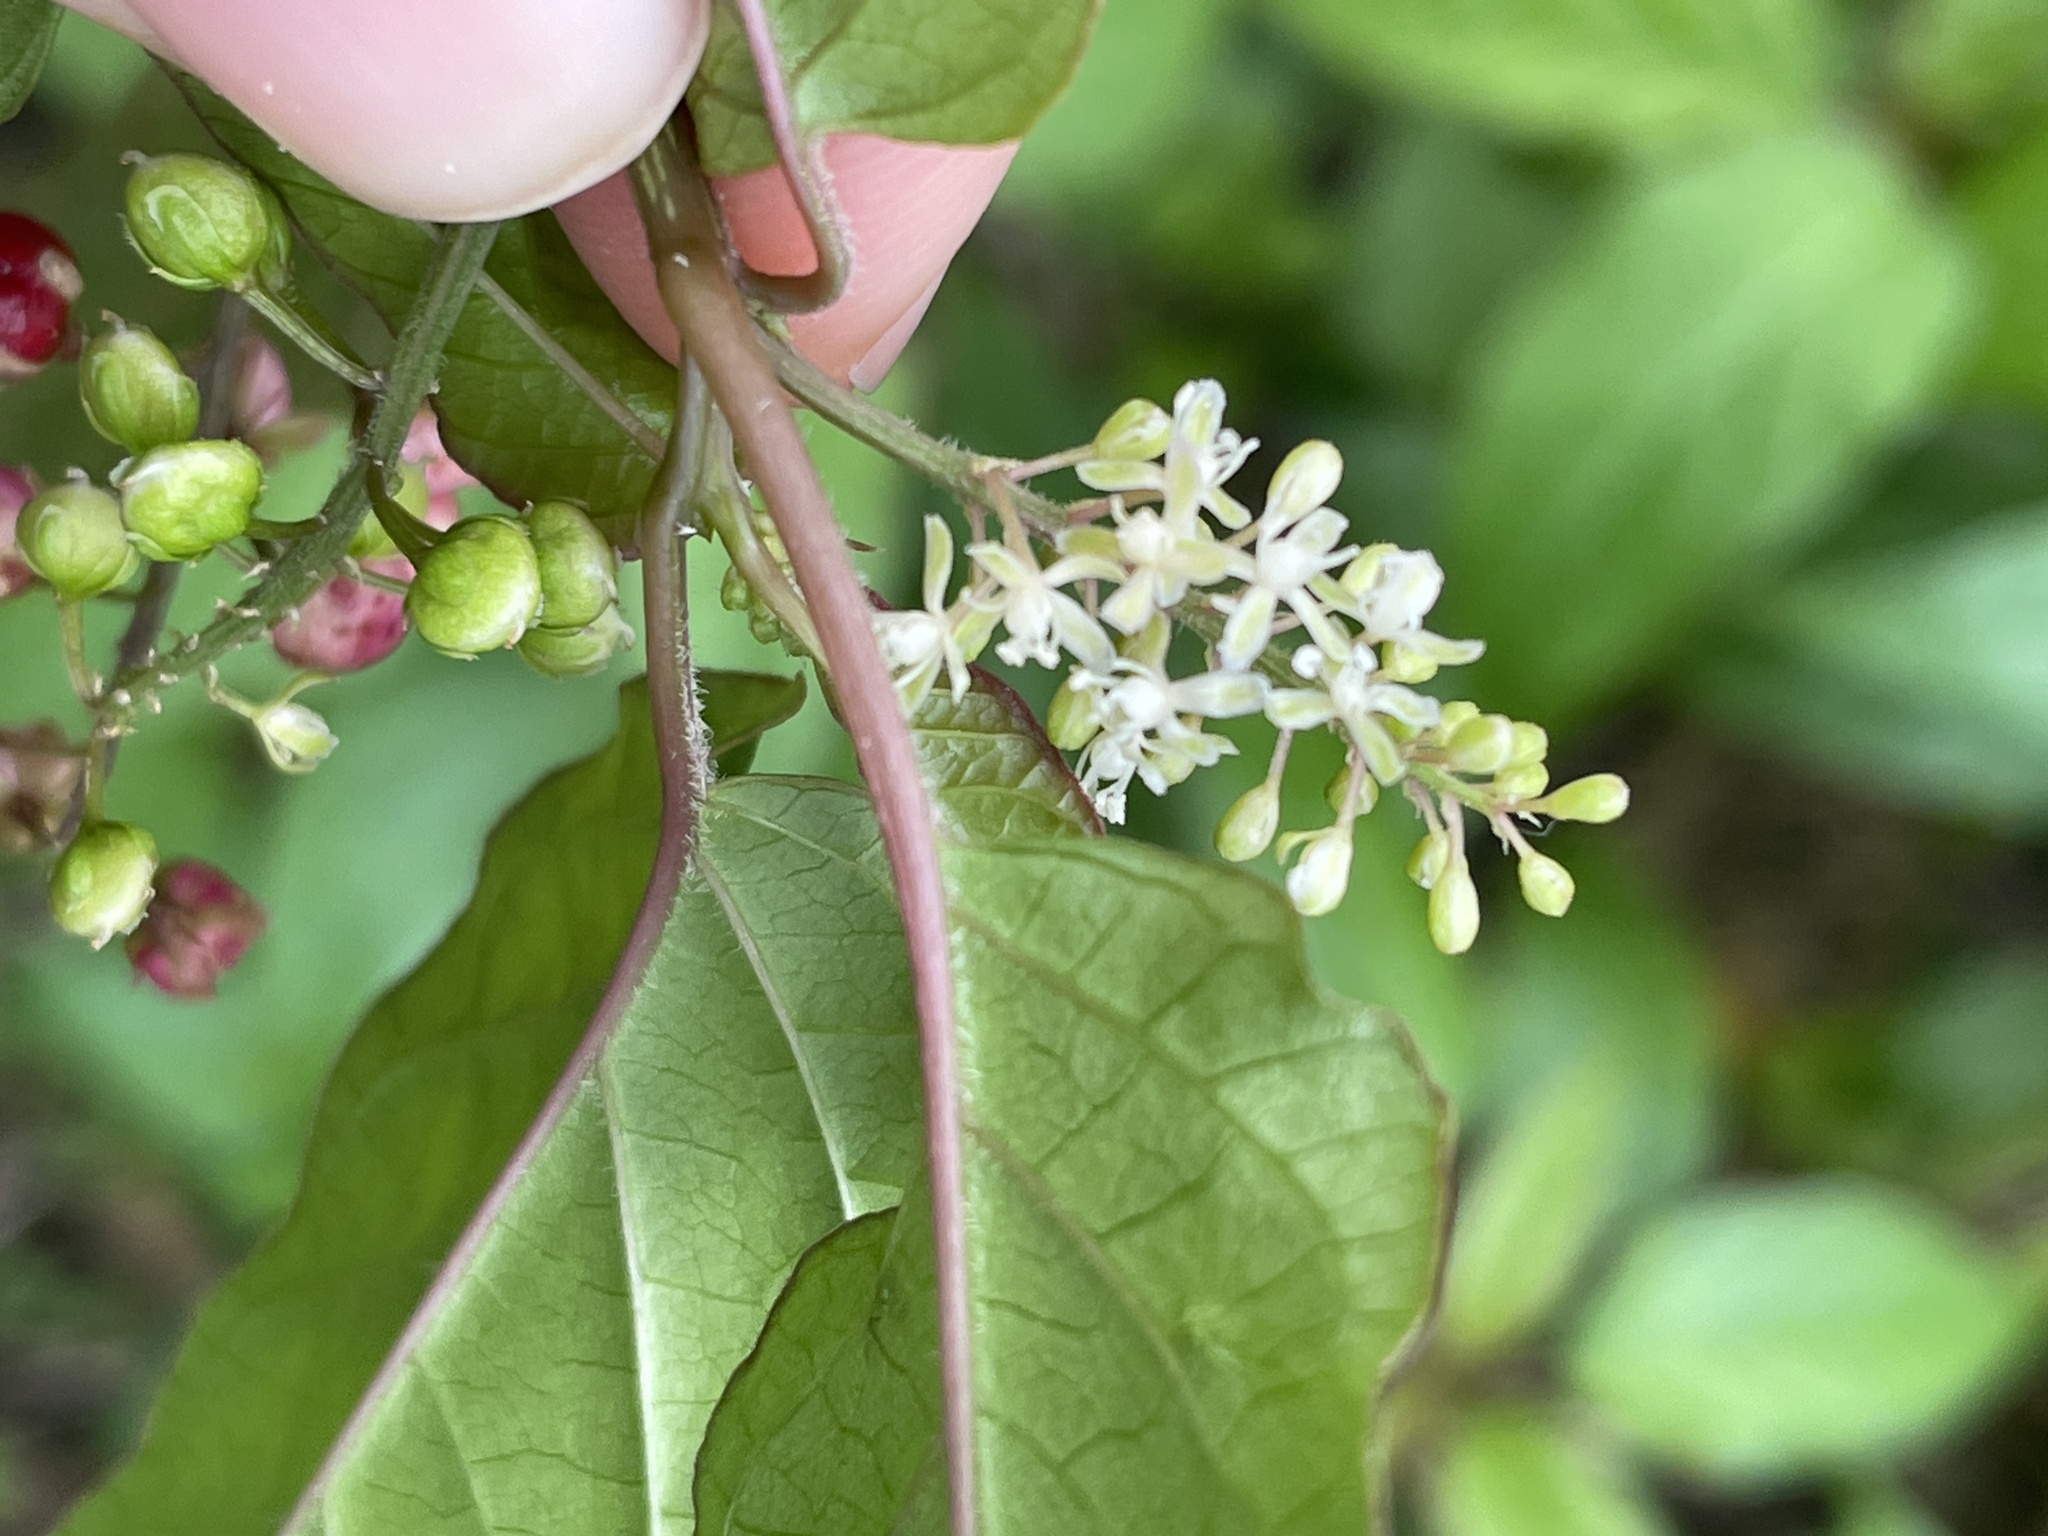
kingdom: Plantae
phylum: Tracheophyta
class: Magnoliopsida
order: Caryophyllales
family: Phytolaccaceae
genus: Rivina
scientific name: Rivina humilis
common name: Rougeplant
